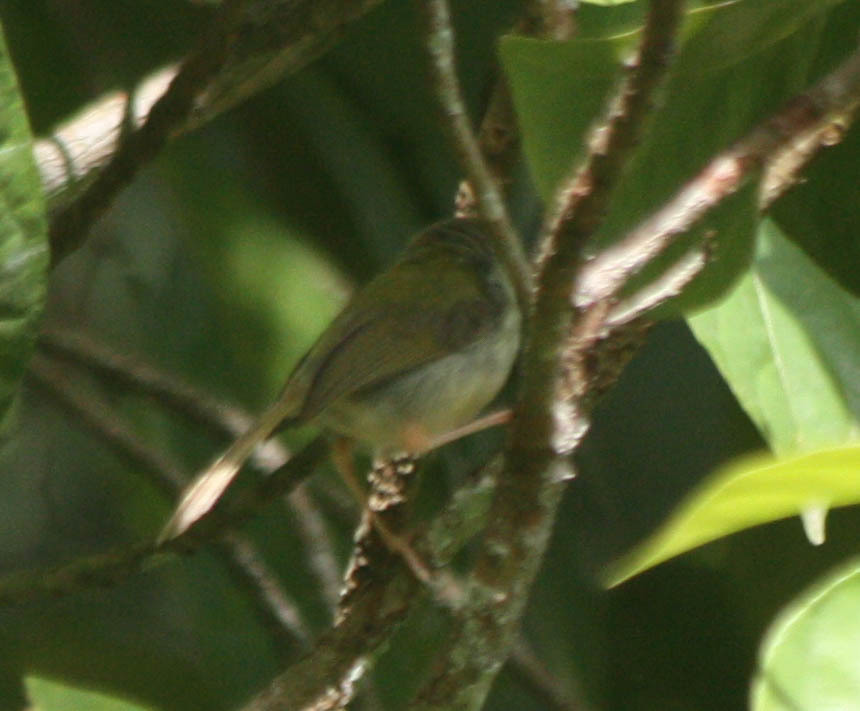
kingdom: Animalia
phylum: Chordata
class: Aves
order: Passeriformes
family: Cisticolidae
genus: Orthotomus
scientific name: Orthotomus sutorius
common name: Common tailorbird
